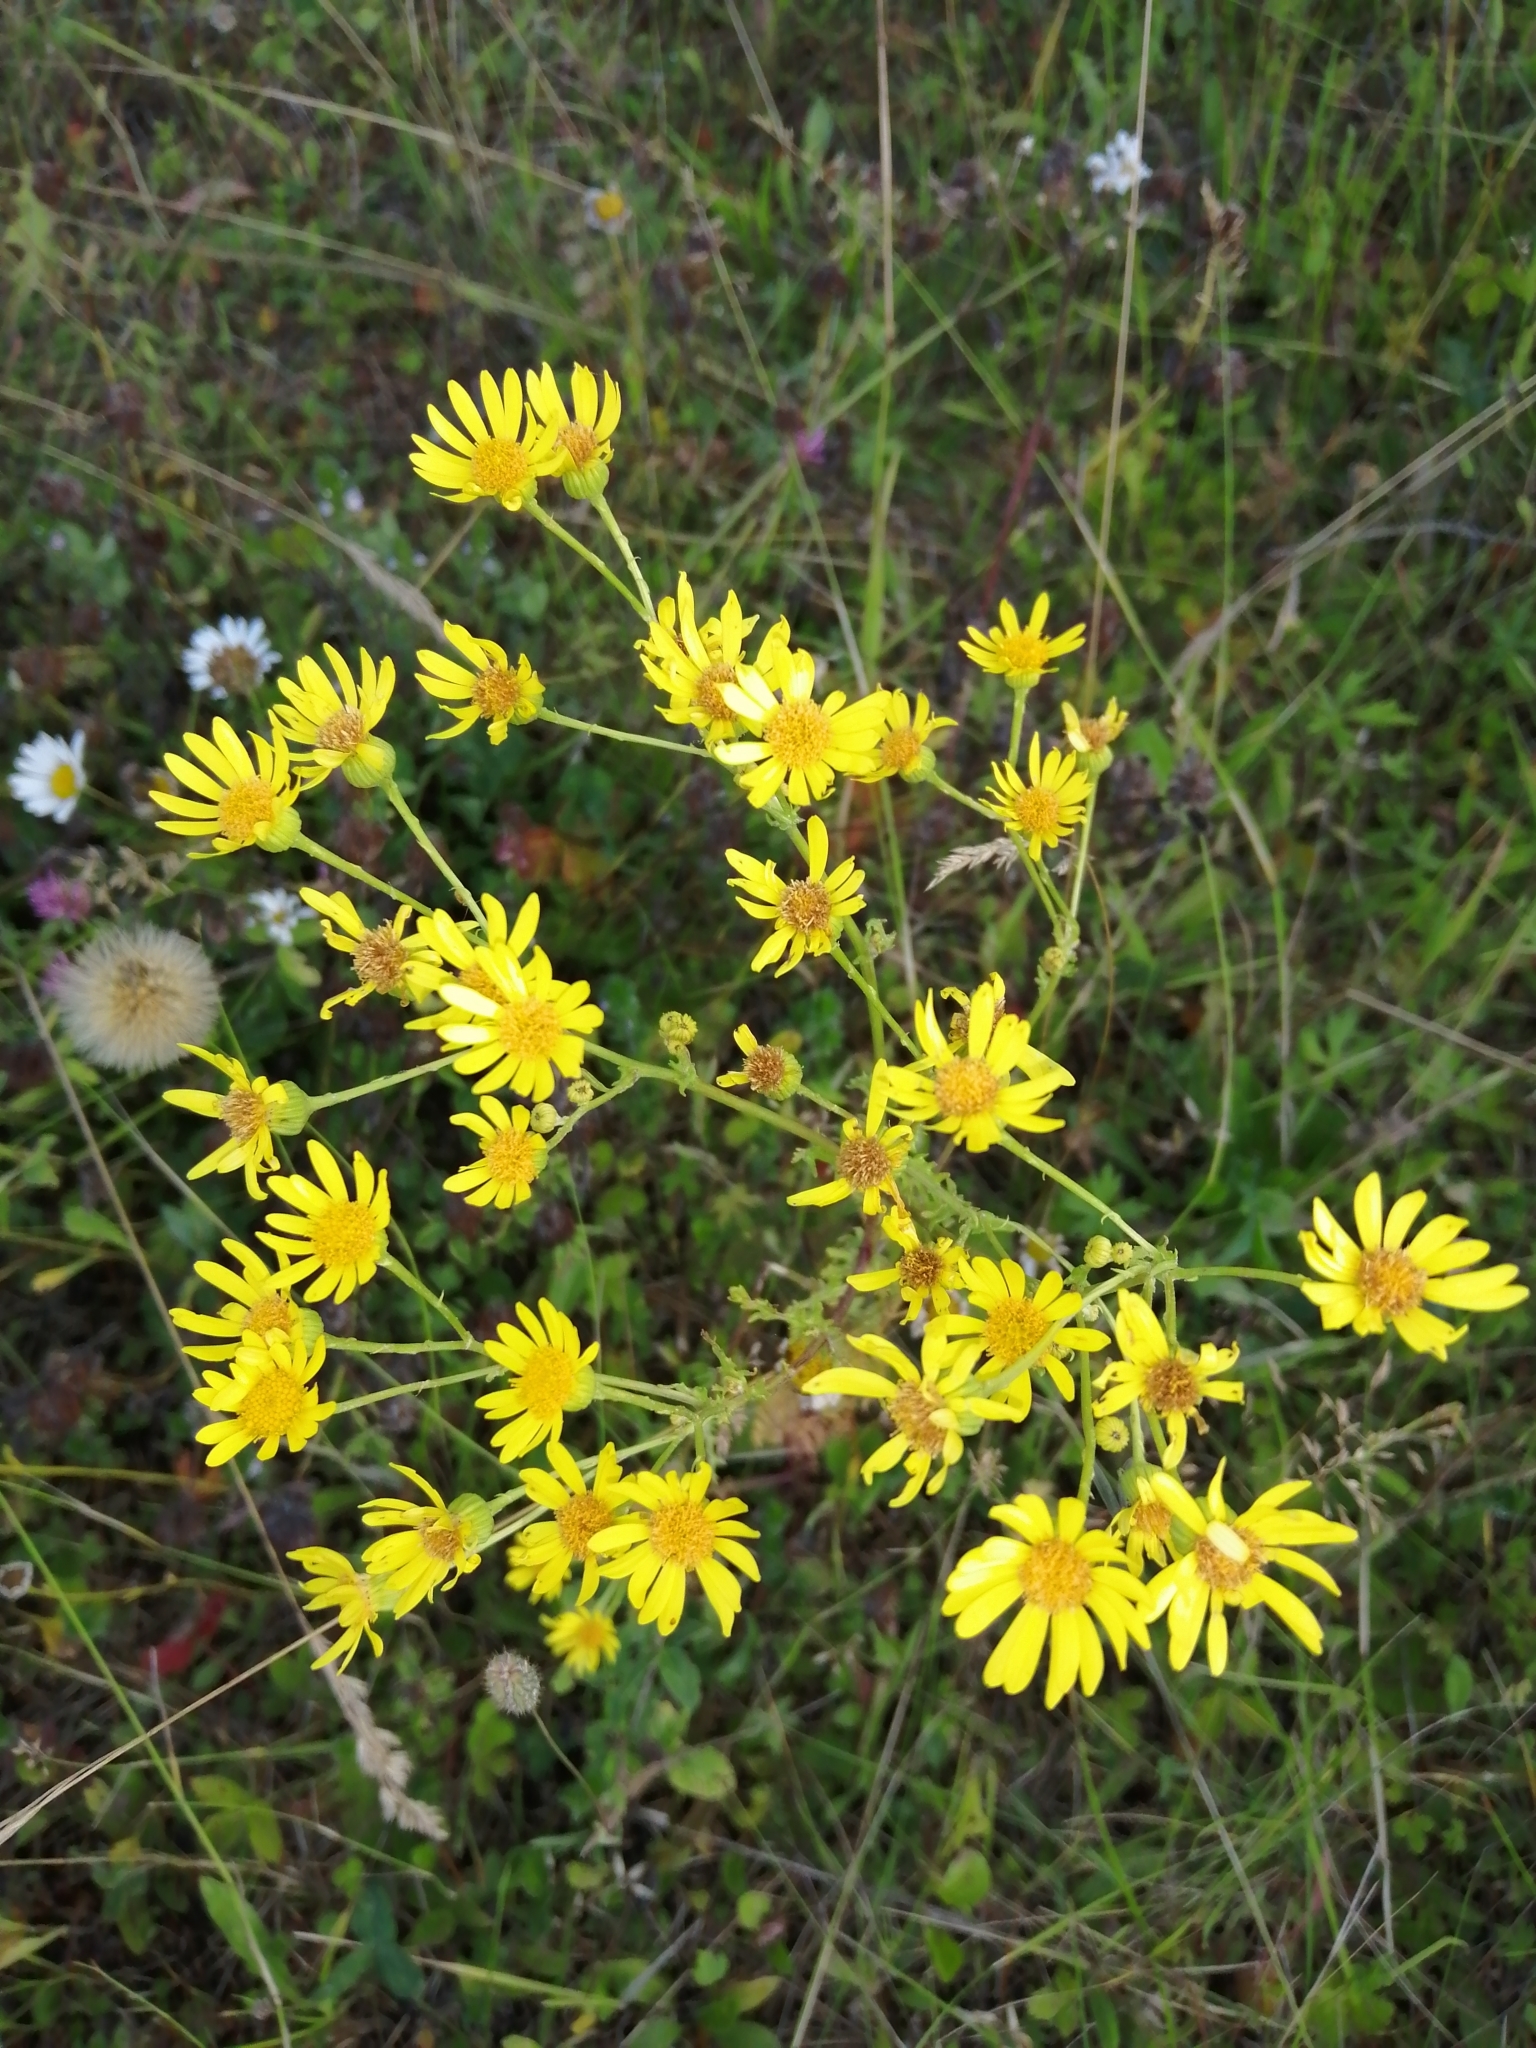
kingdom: Plantae
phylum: Tracheophyta
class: Magnoliopsida
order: Asterales
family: Asteraceae
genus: Jacobaea
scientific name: Jacobaea vulgaris
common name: Stinking willie
